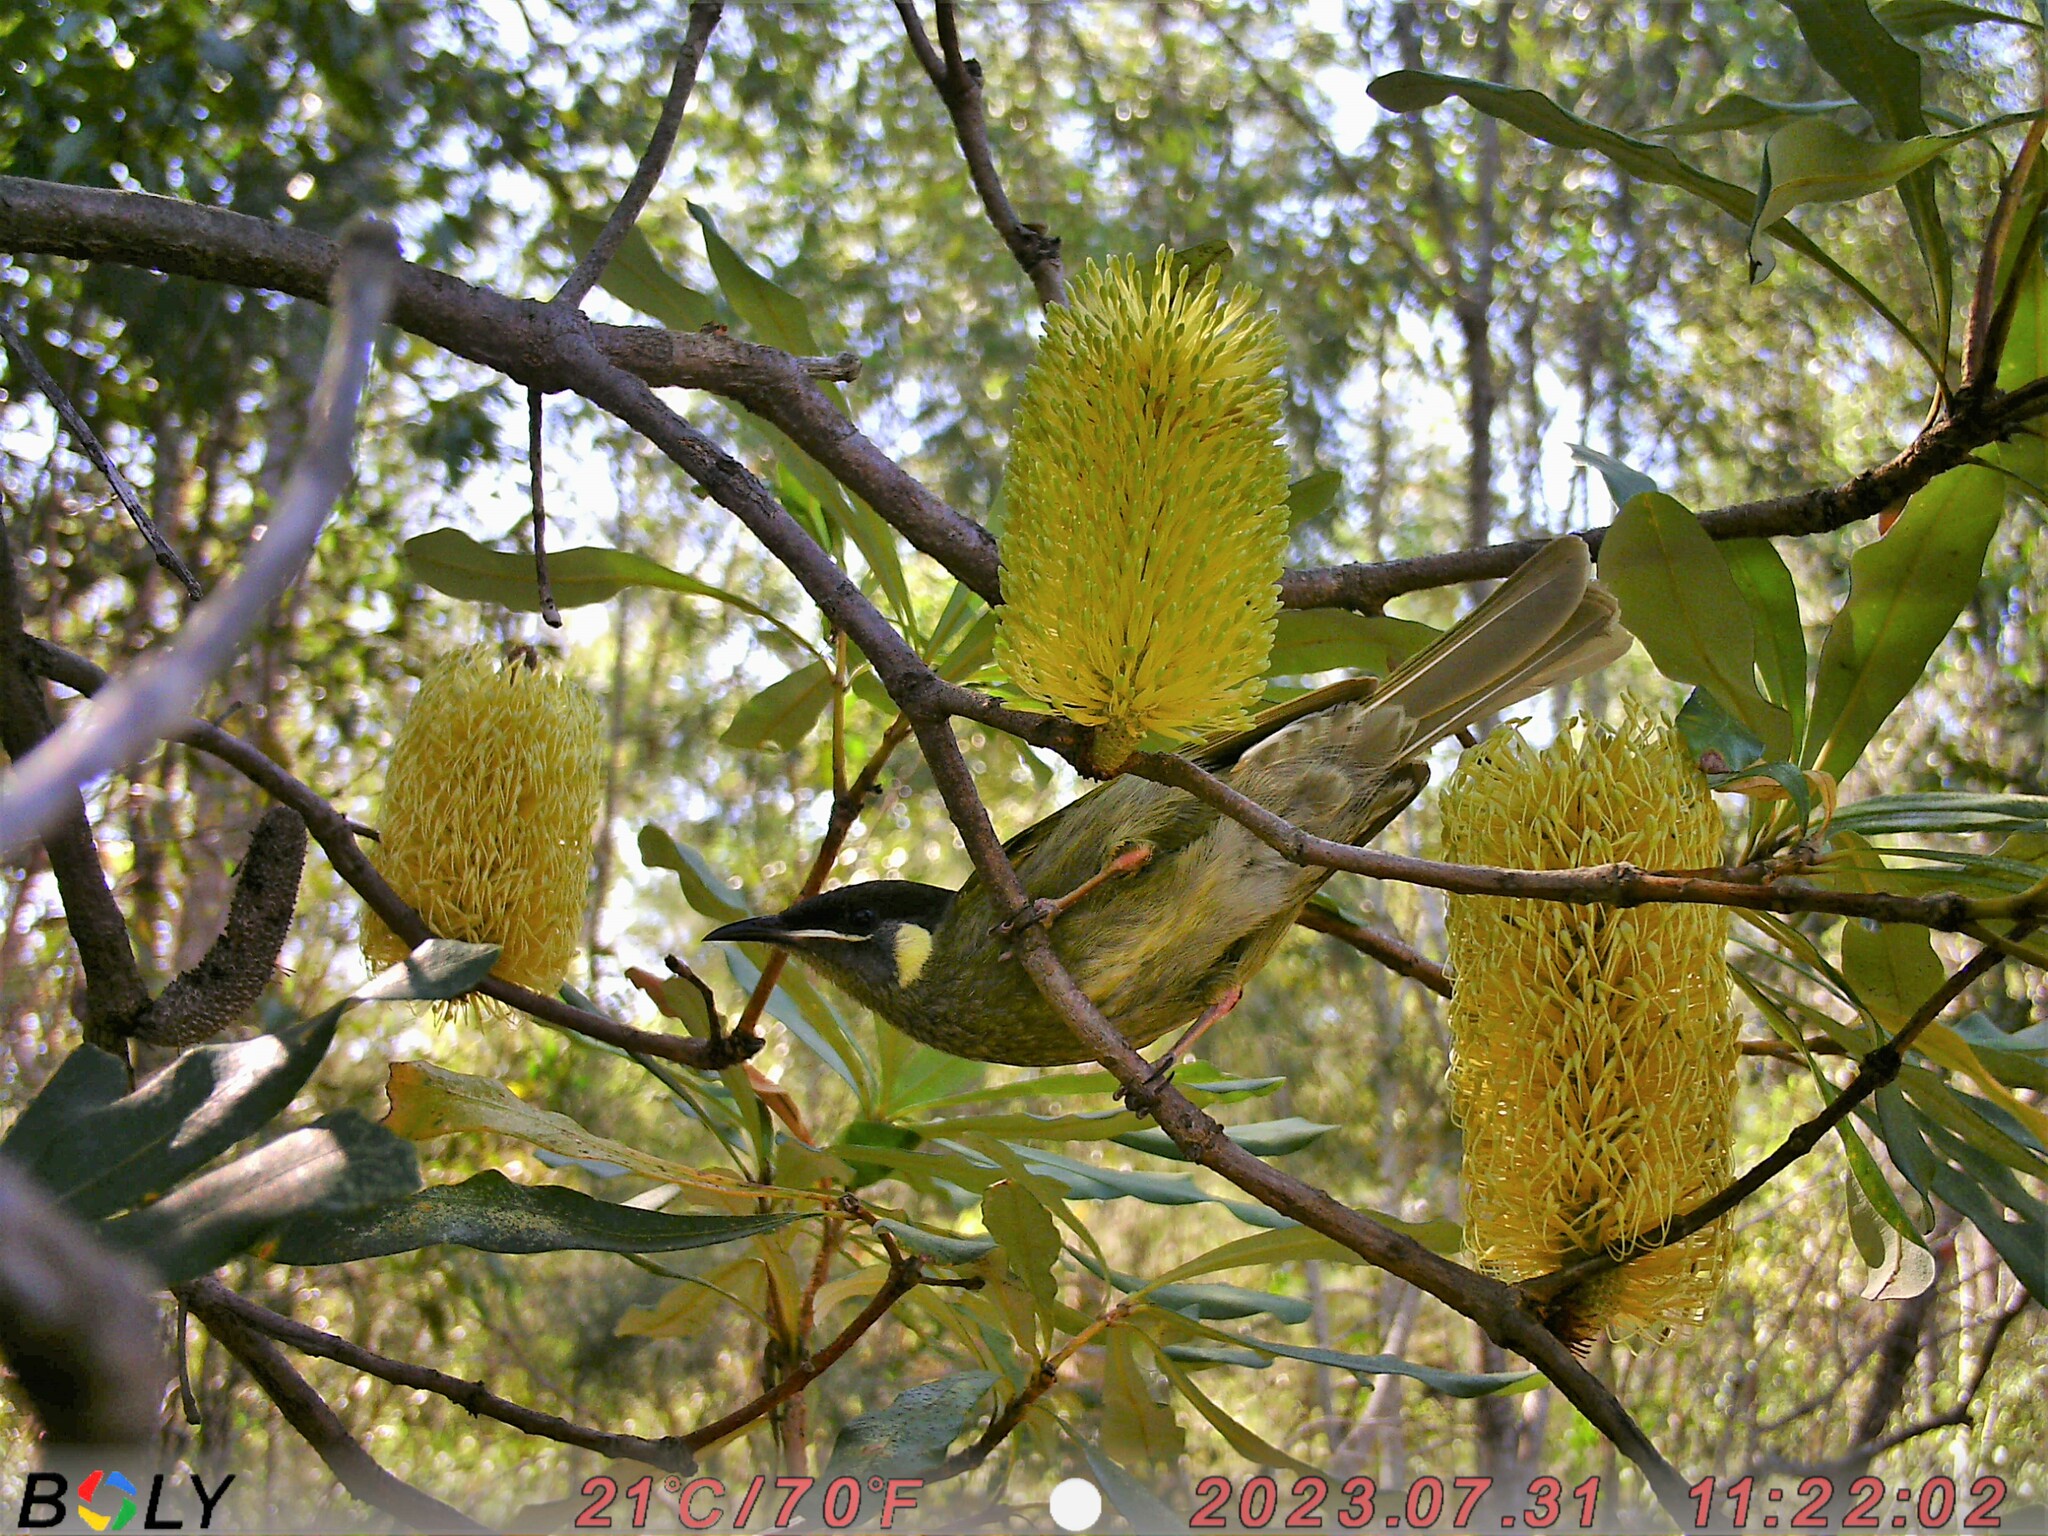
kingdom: Animalia
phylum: Chordata
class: Aves
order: Passeriformes
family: Meliphagidae
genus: Meliphaga
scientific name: Meliphaga lewinii
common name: Lewin's honeyeater
